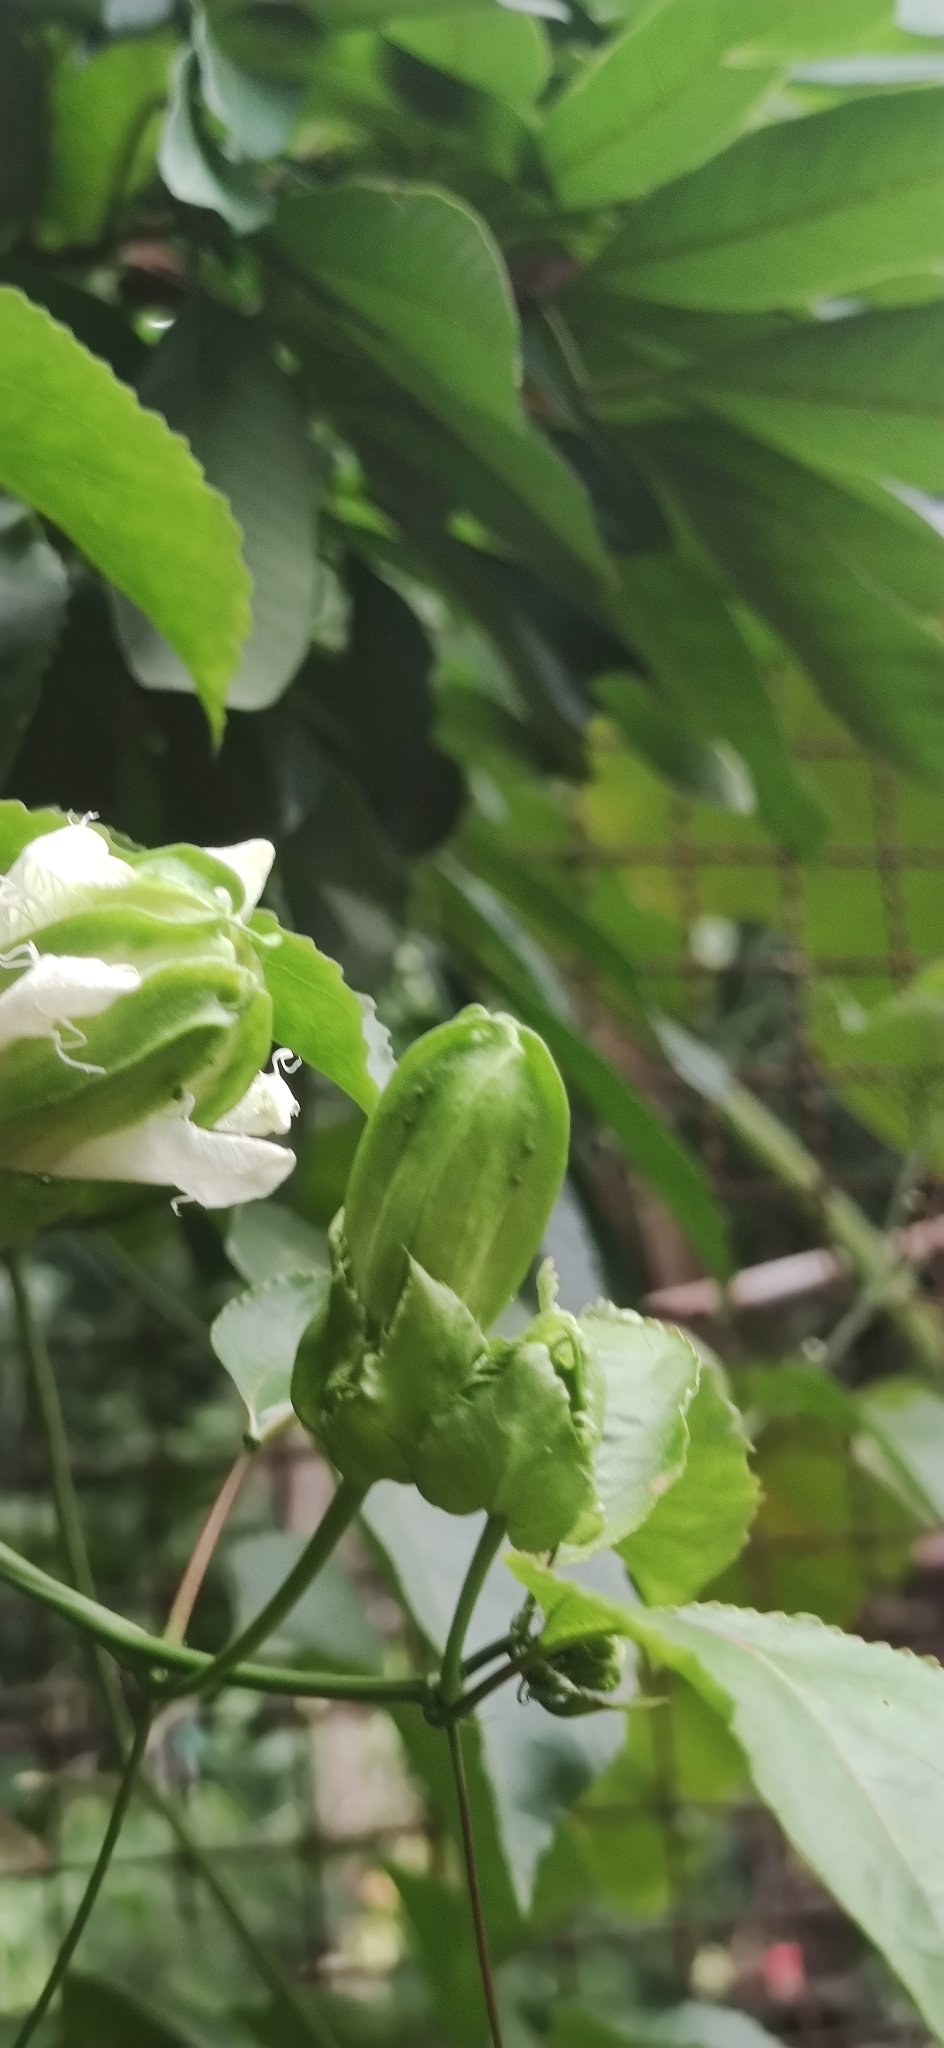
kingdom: Plantae
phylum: Tracheophyta
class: Magnoliopsida
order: Malpighiales
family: Passifloraceae
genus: Passiflora
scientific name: Passiflora edulis
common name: Purple granadilla
